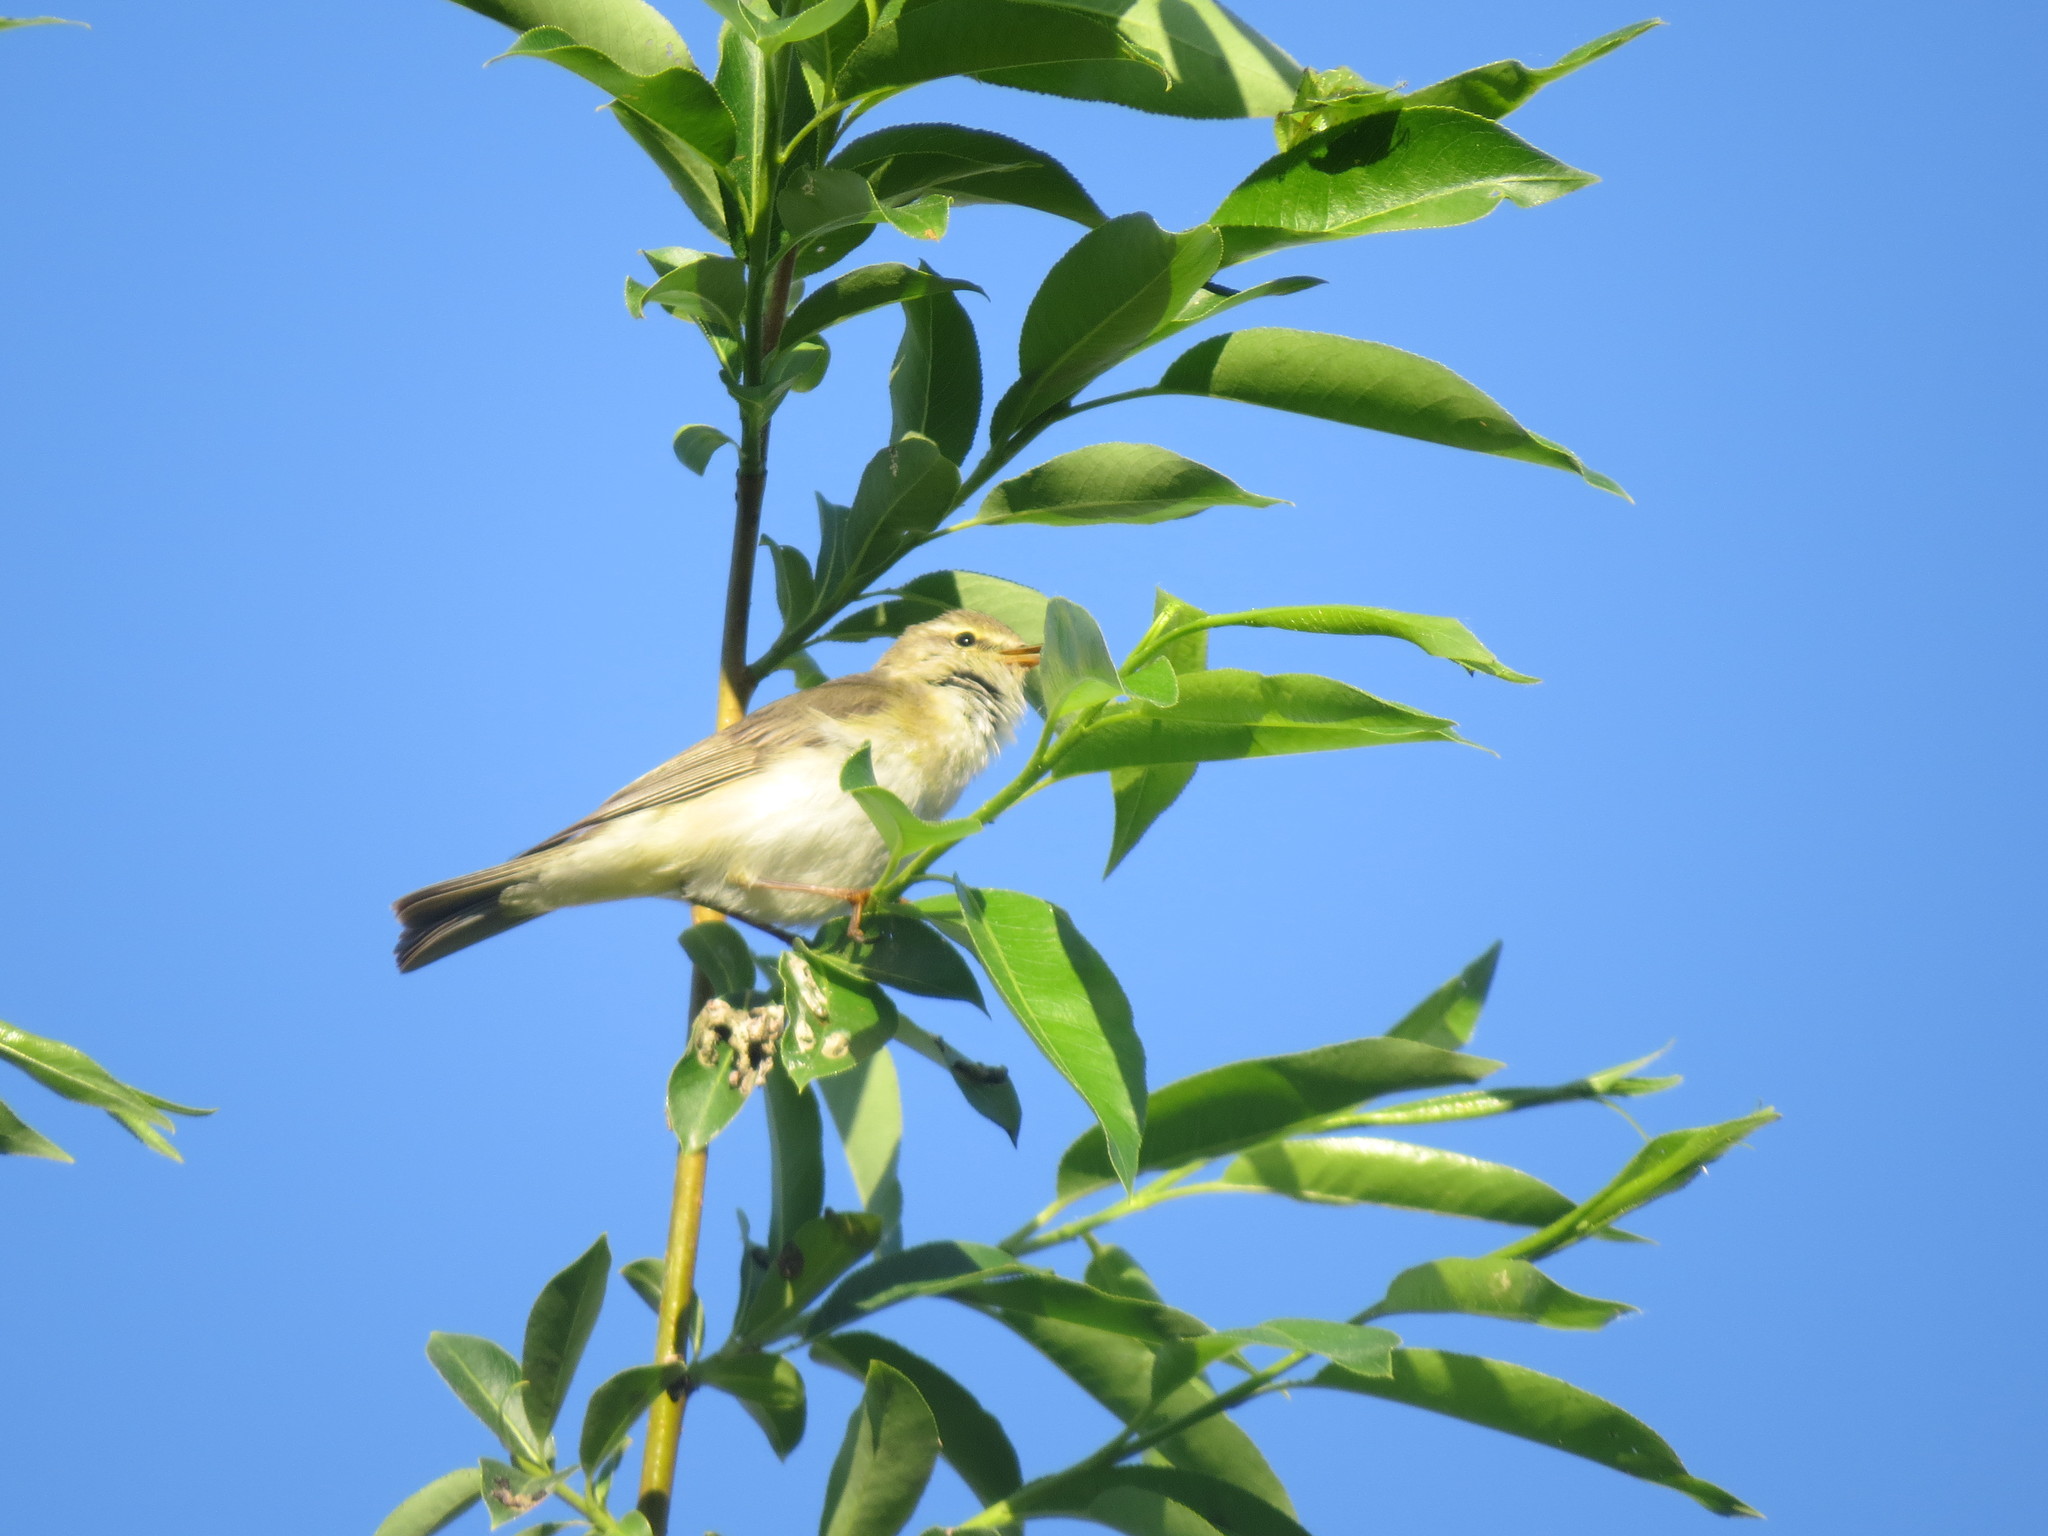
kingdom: Animalia
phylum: Chordata
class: Aves
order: Passeriformes
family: Phylloscopidae
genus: Phylloscopus
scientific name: Phylloscopus trochilus
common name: Willow warbler
